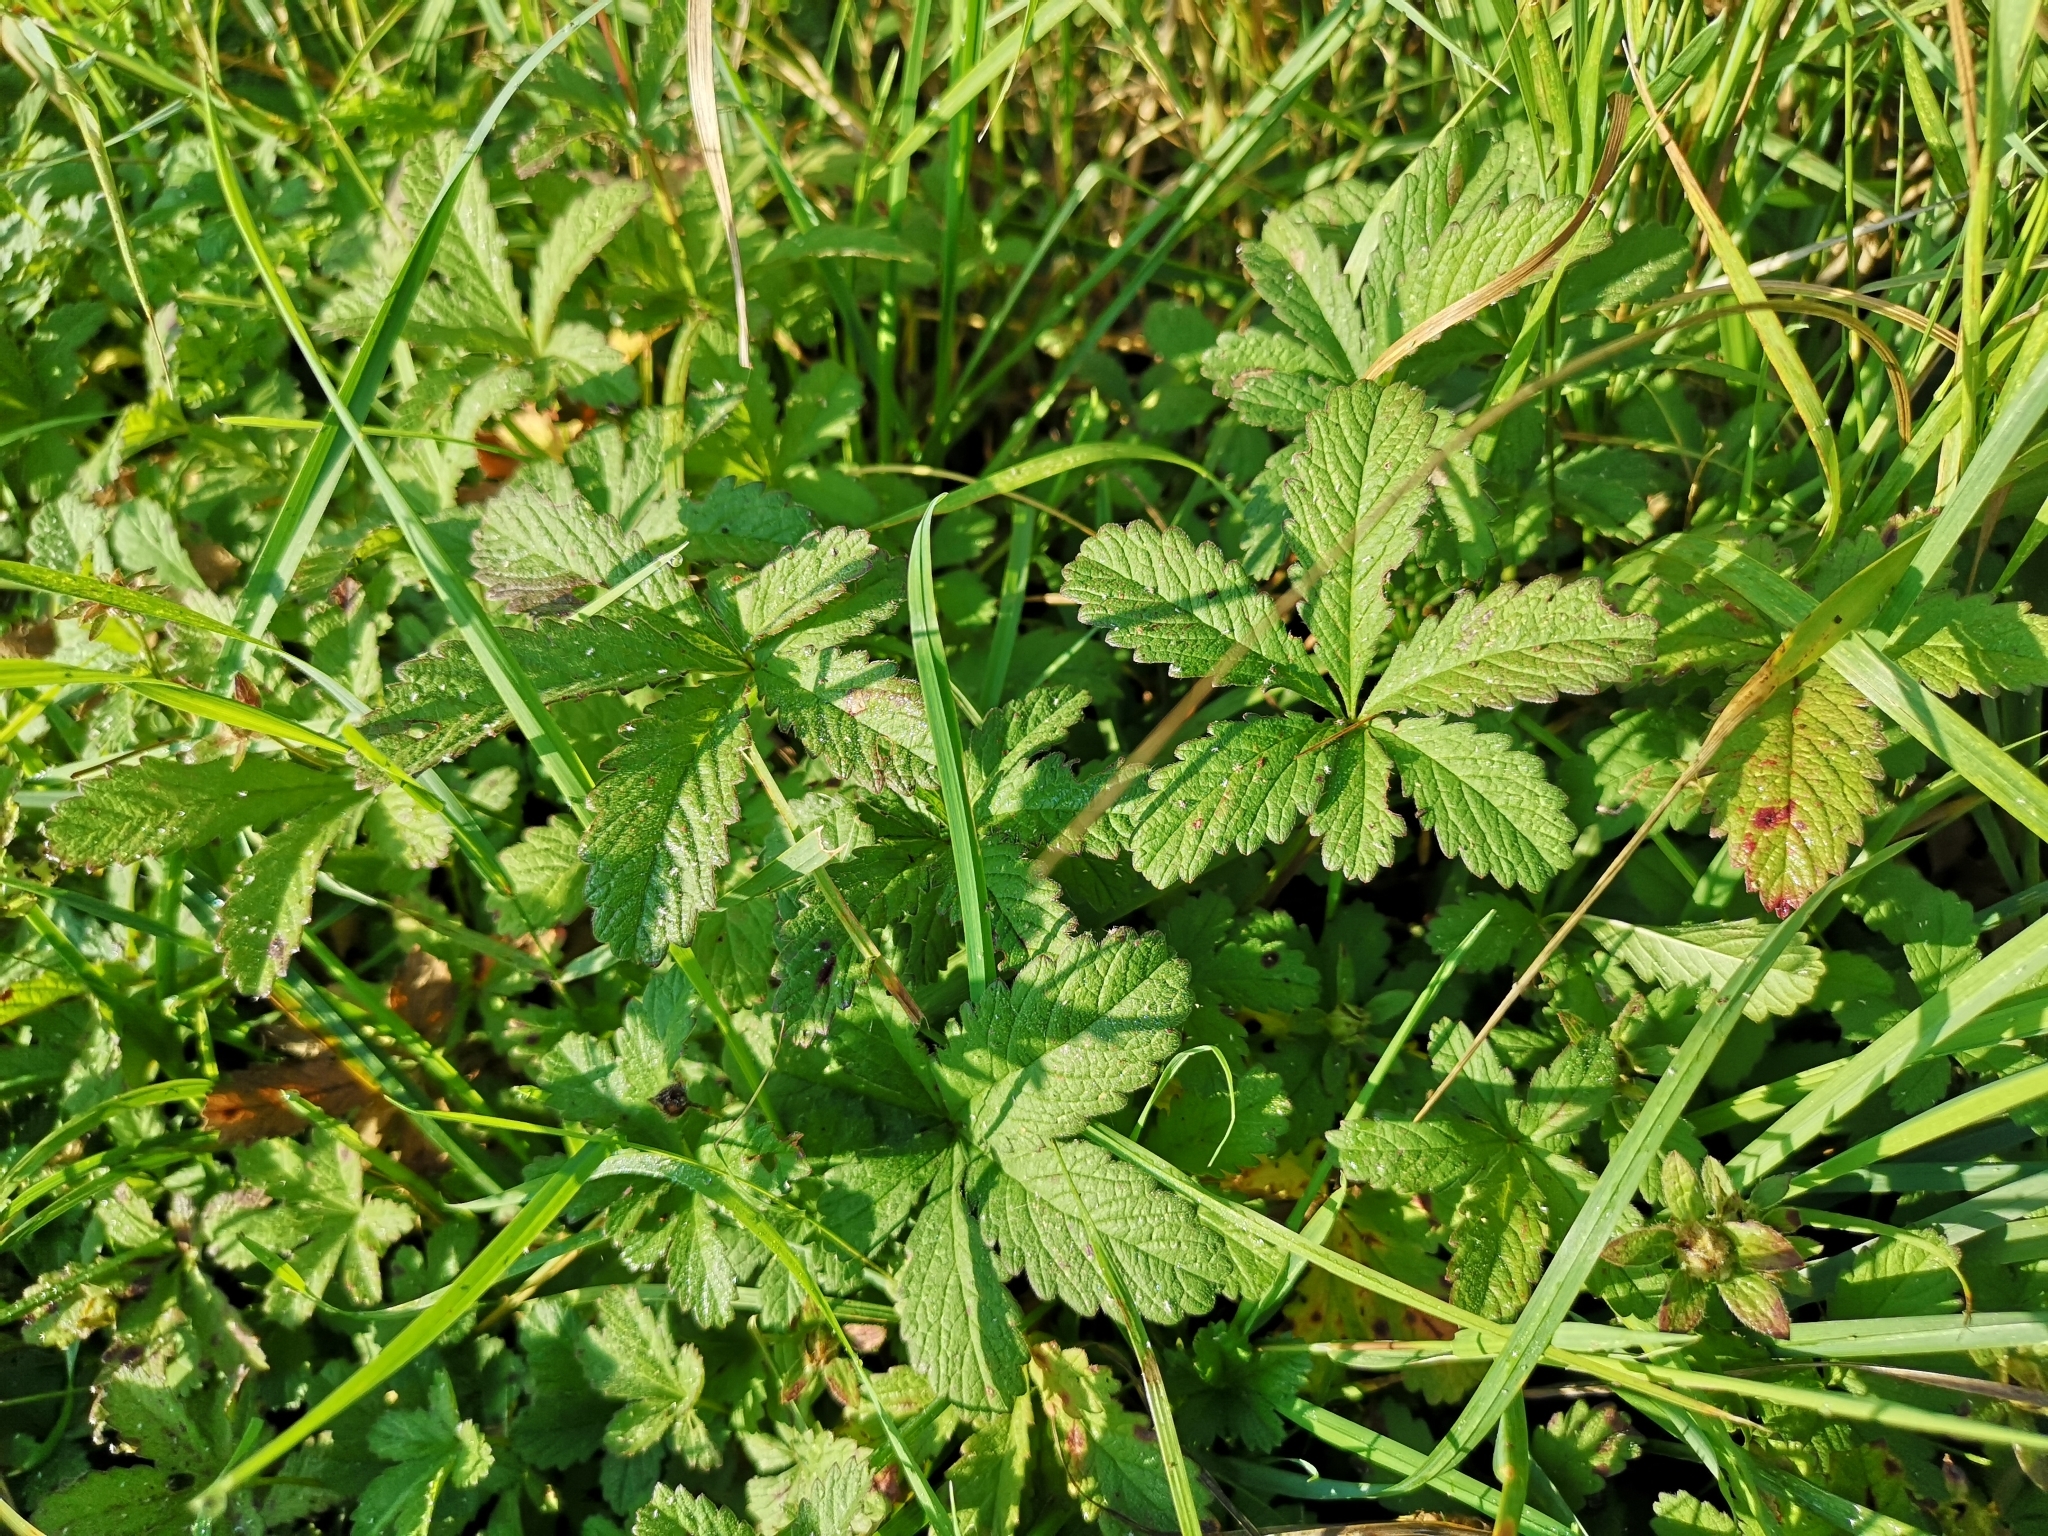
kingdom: Plantae
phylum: Tracheophyta
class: Magnoliopsida
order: Rosales
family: Rosaceae
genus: Potentilla
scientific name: Potentilla reptans
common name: Creeping cinquefoil
